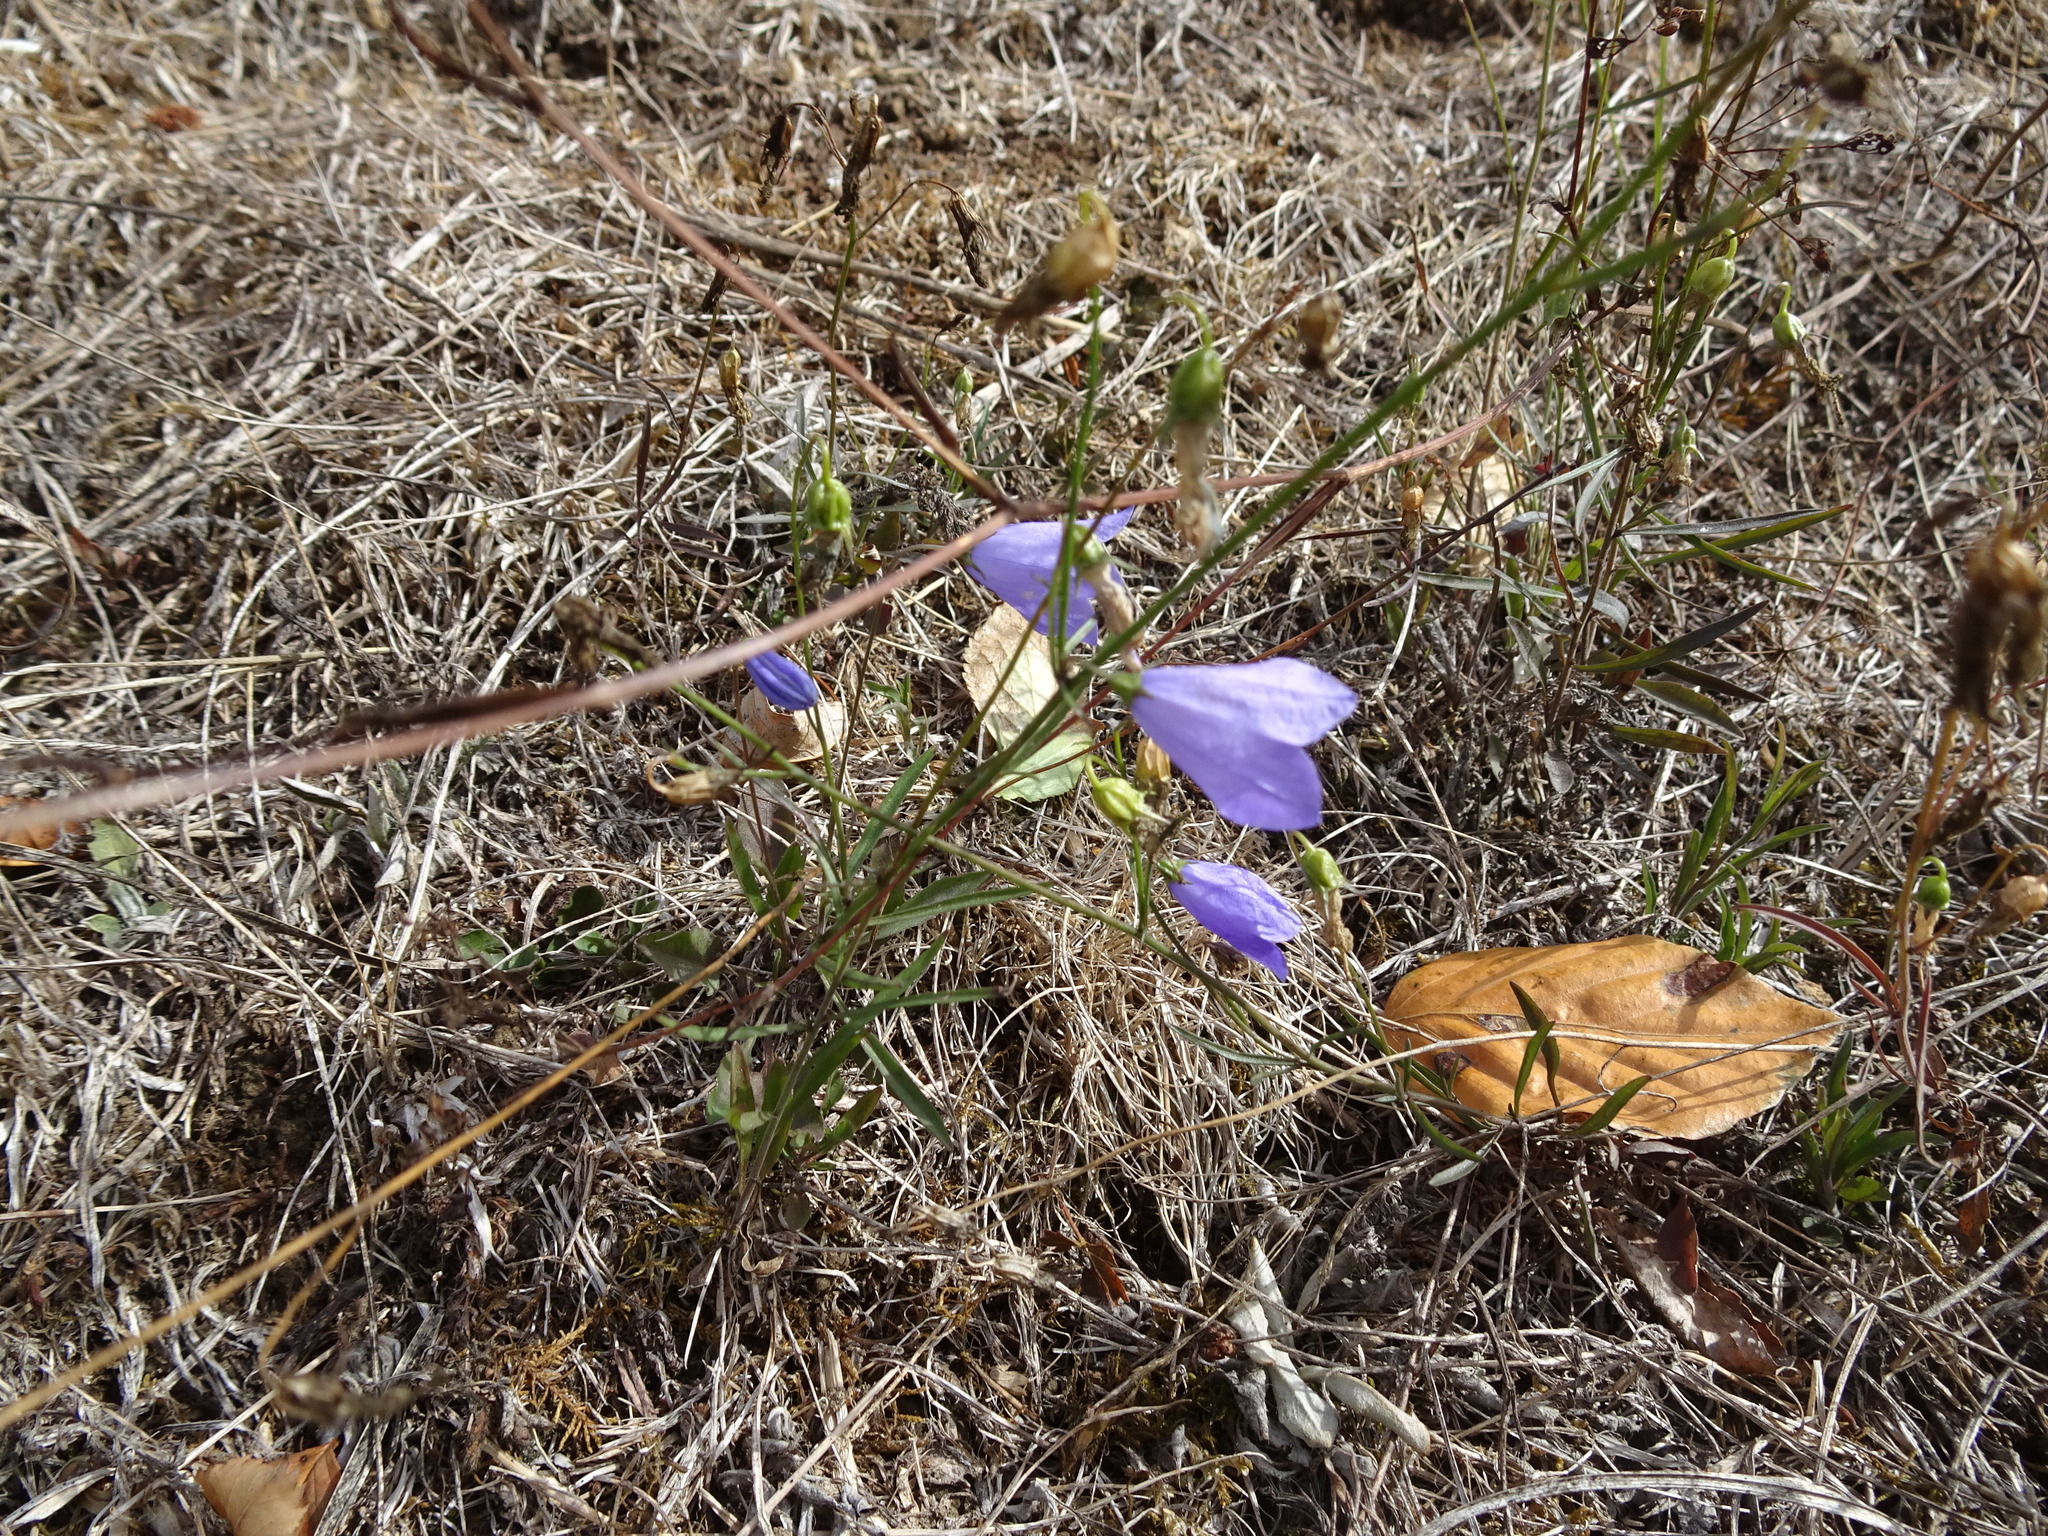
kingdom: Plantae
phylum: Tracheophyta
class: Magnoliopsida
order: Asterales
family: Campanulaceae
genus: Campanula
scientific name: Campanula rotundifolia
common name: Harebell
